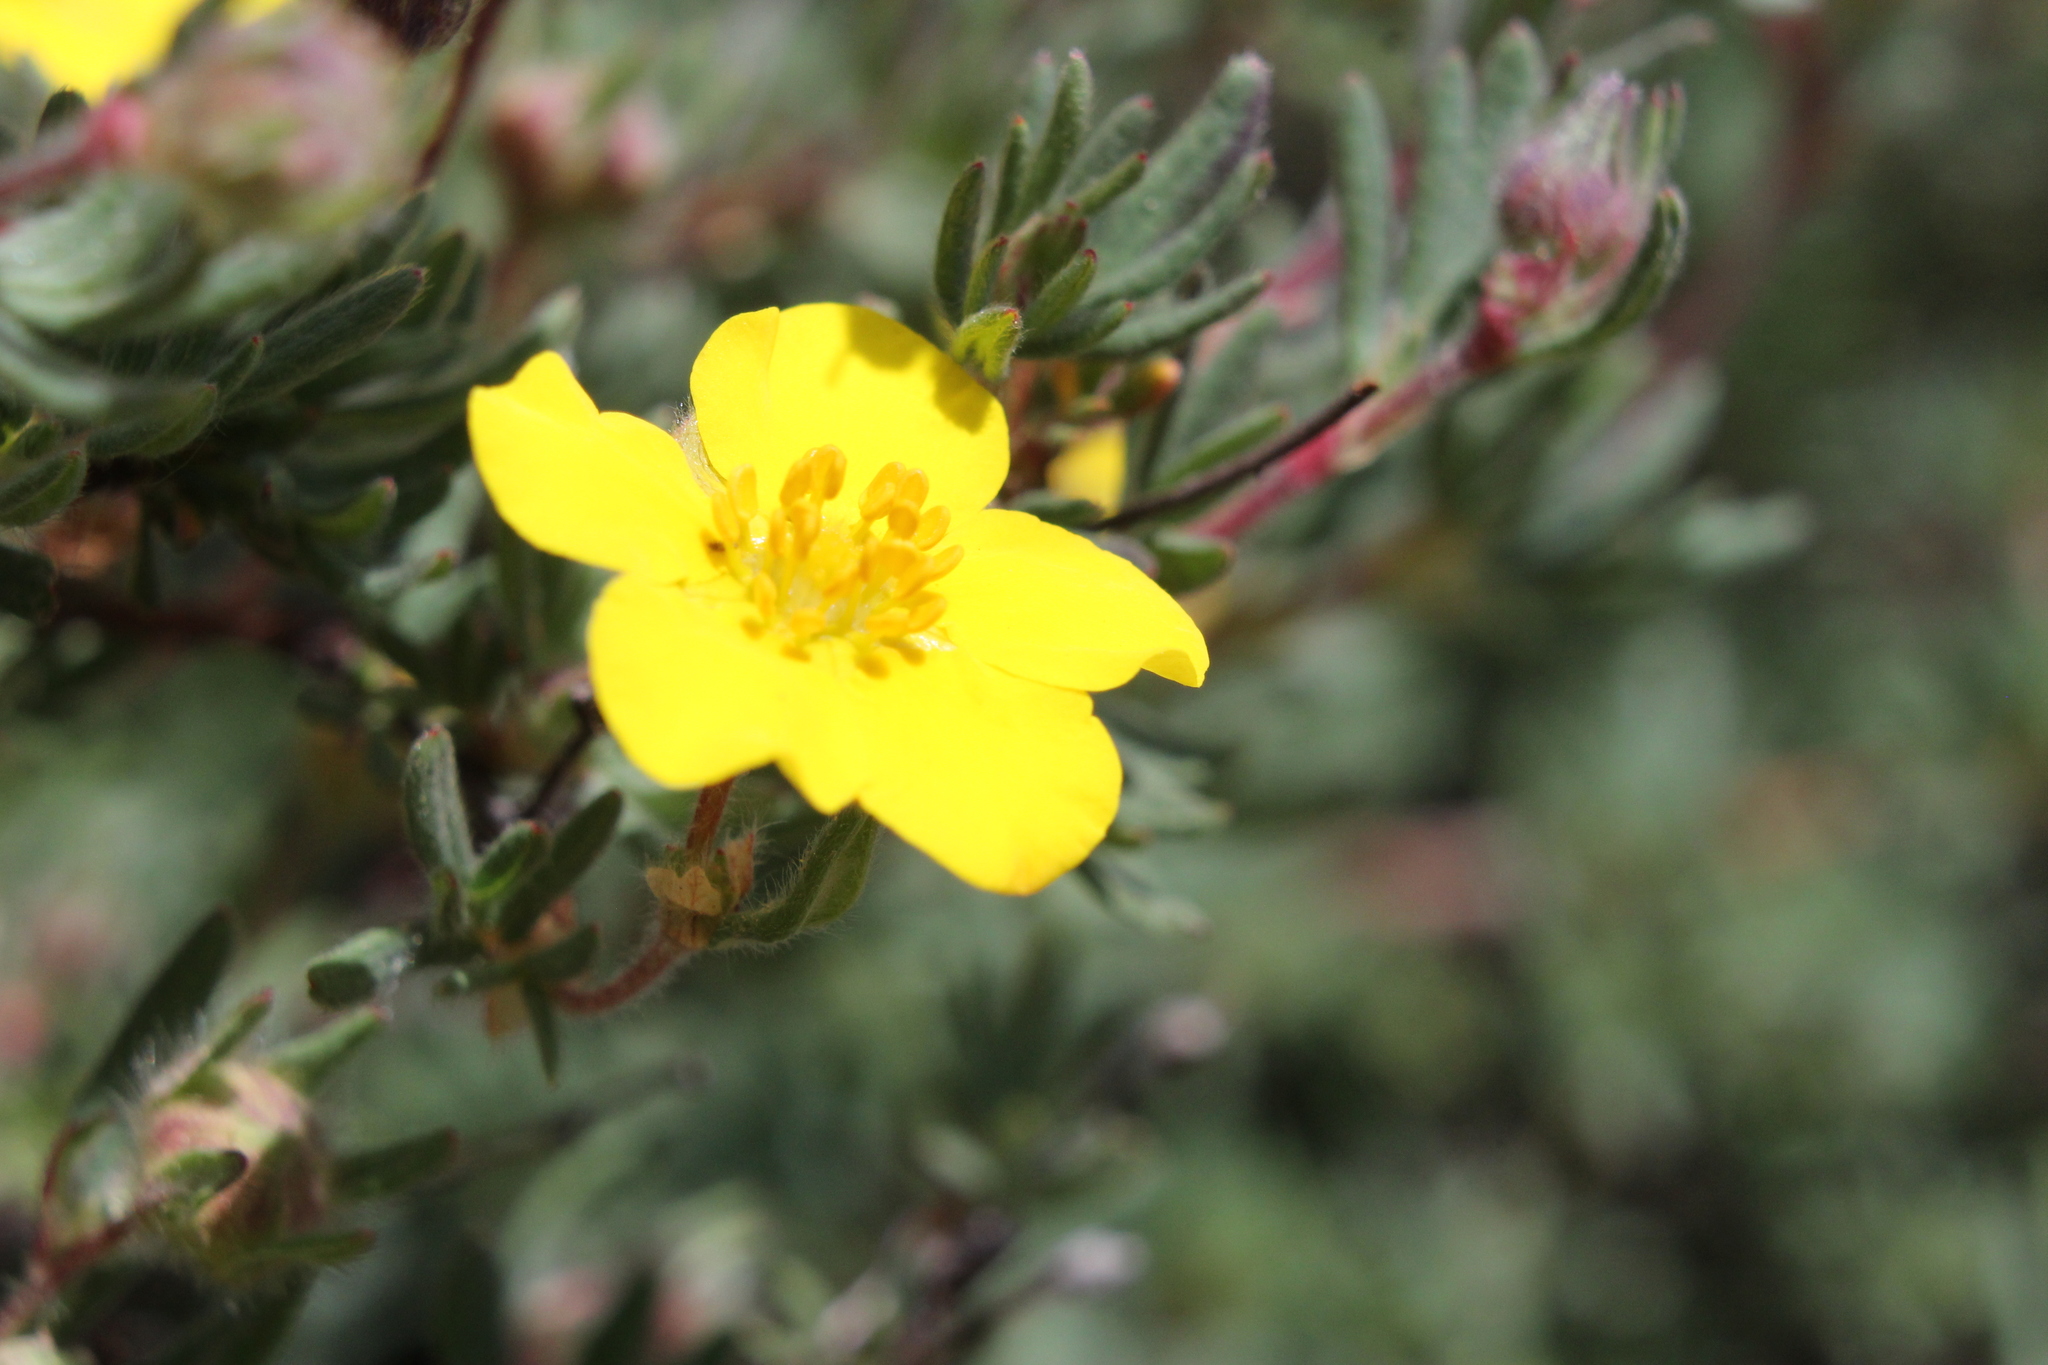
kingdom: Plantae
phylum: Tracheophyta
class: Magnoliopsida
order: Rosales
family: Rosaceae
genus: Dasiphora
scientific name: Dasiphora fruticosa
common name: Shrubby cinquefoil
